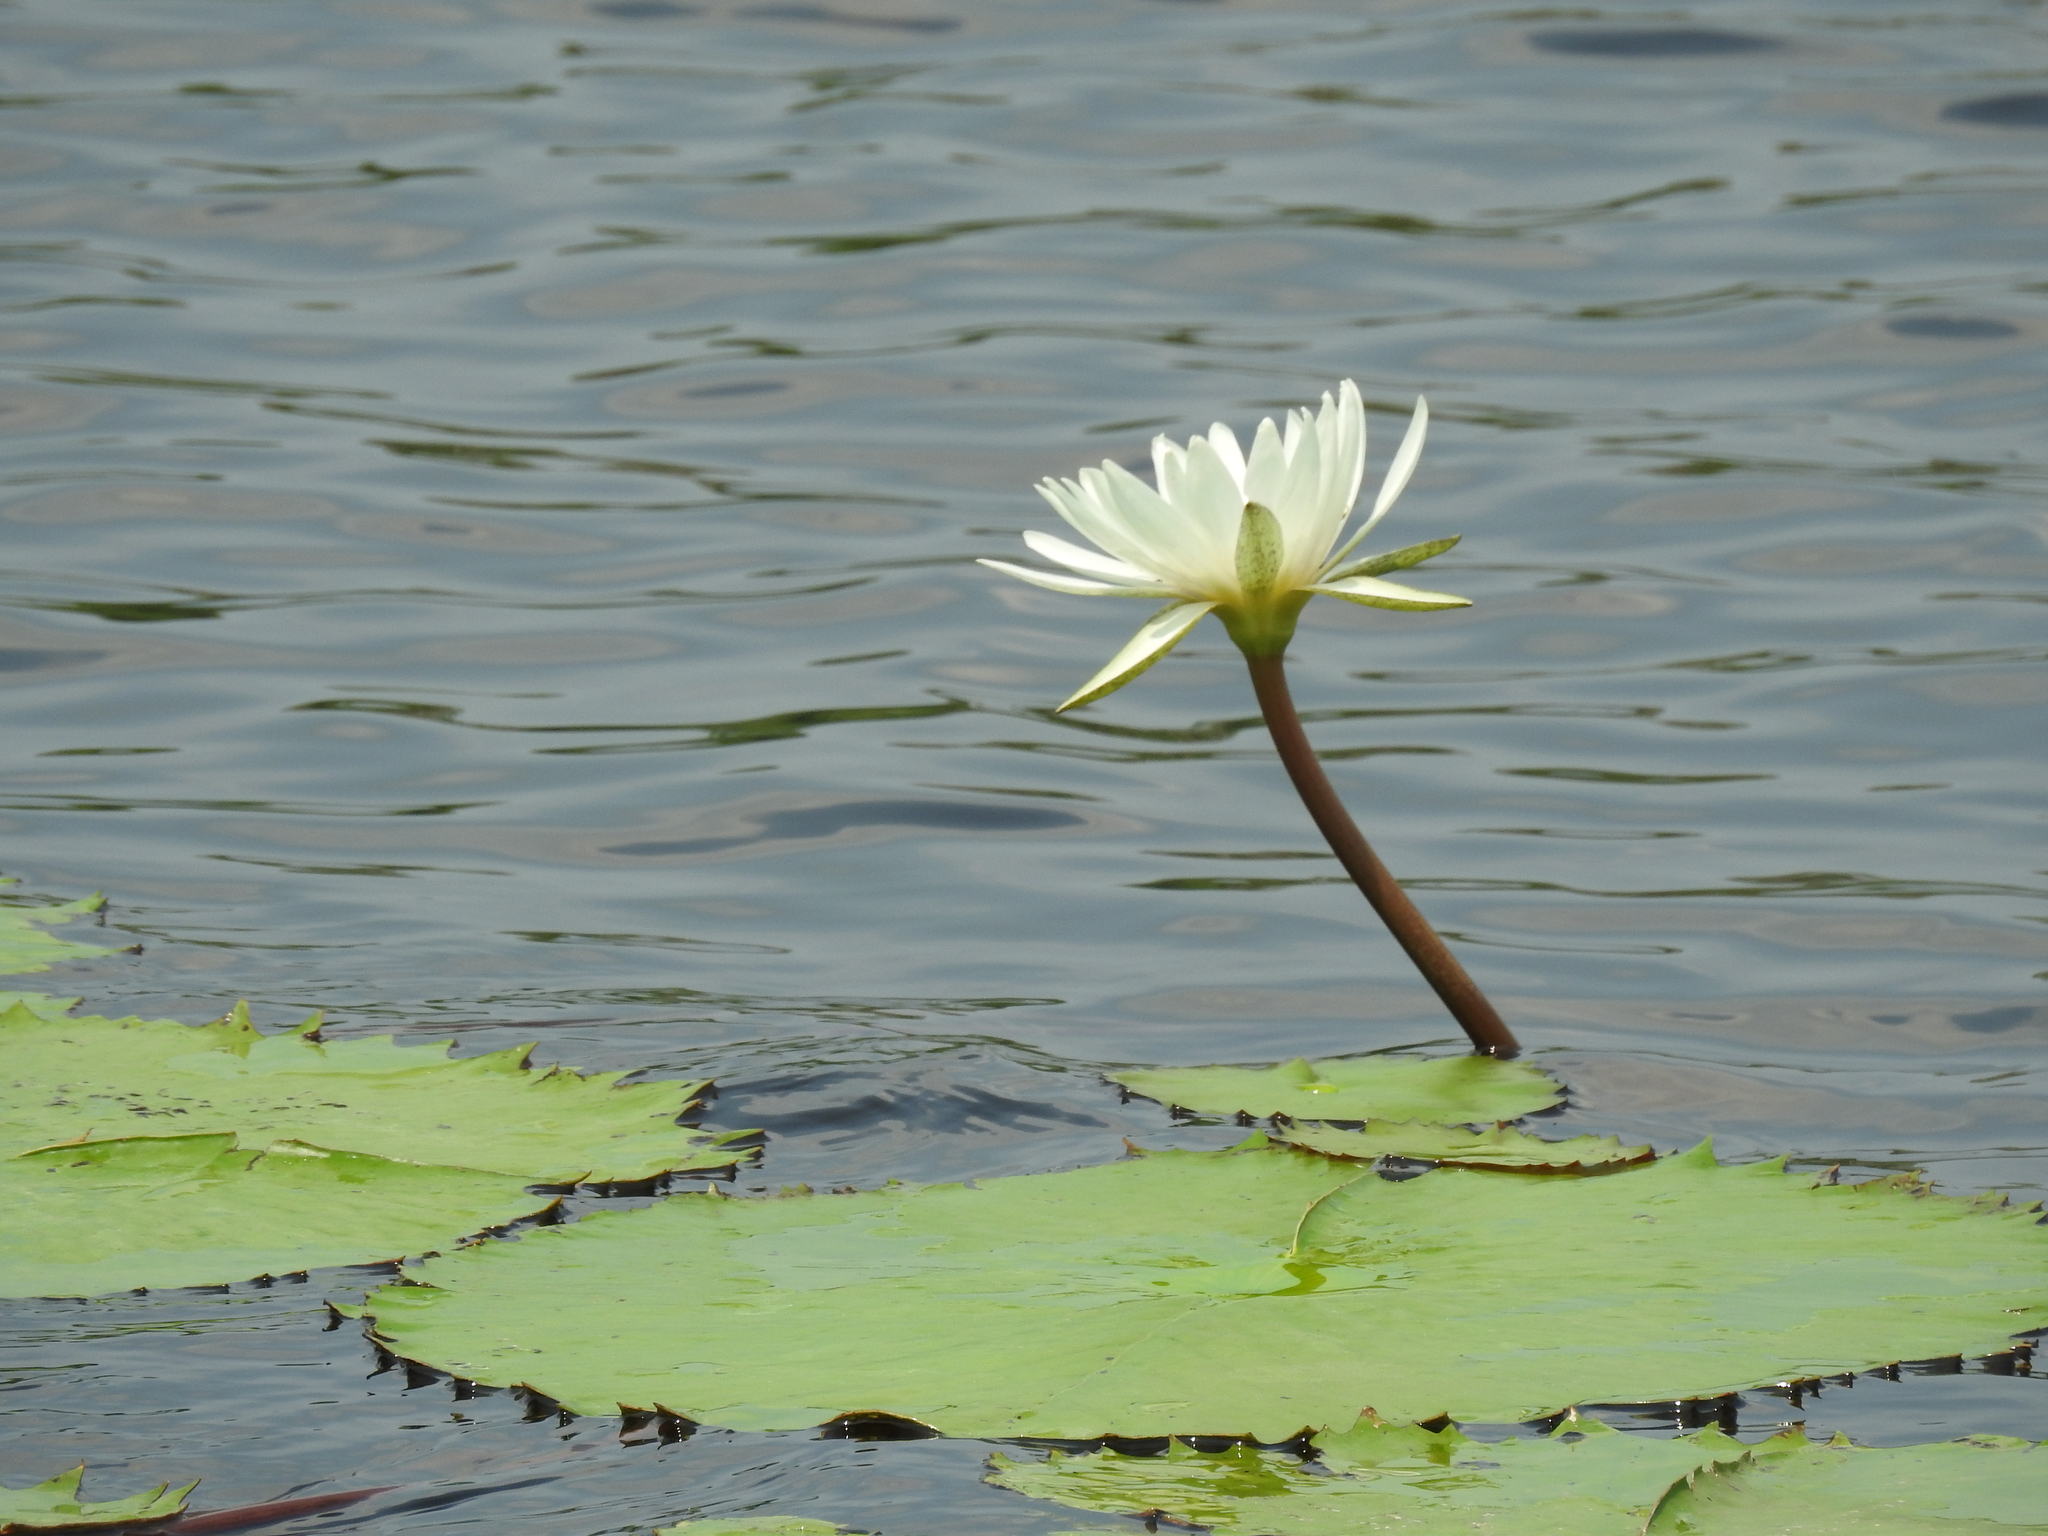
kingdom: Plantae
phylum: Tracheophyta
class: Magnoliopsida
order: Nymphaeales
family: Nymphaeaceae
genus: Nymphaea
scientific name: Nymphaea ampla
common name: Dotleaf waterlily
